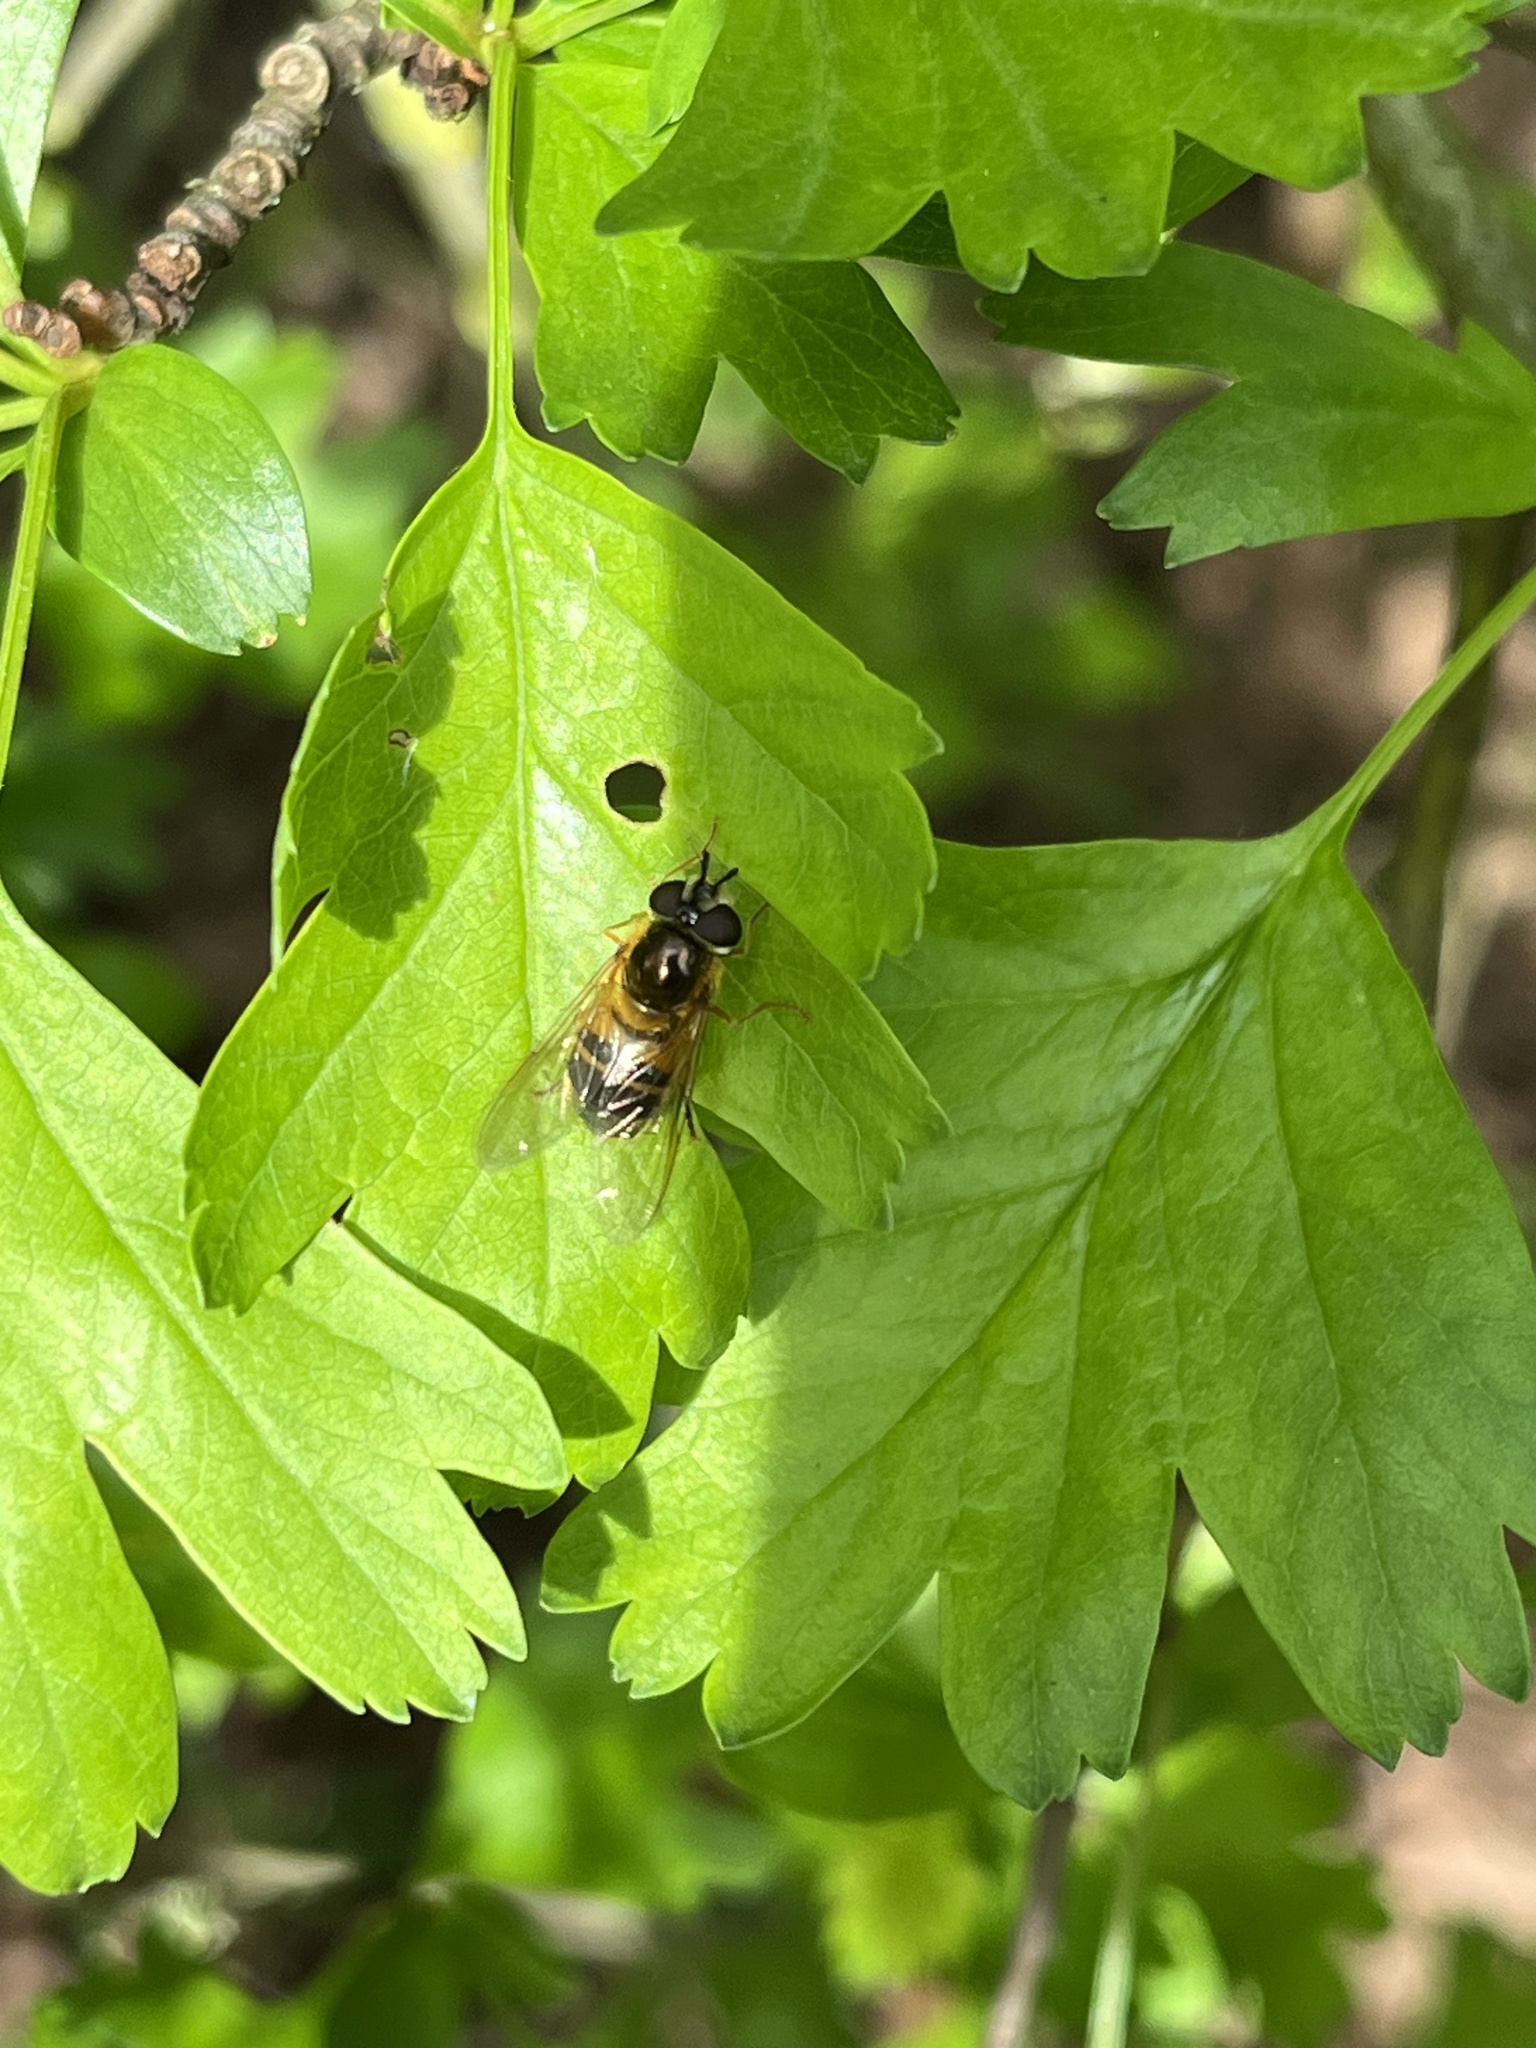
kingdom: Animalia
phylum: Arthropoda
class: Insecta
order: Diptera
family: Syrphidae
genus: Epistrophe
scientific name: Epistrophe eligans
